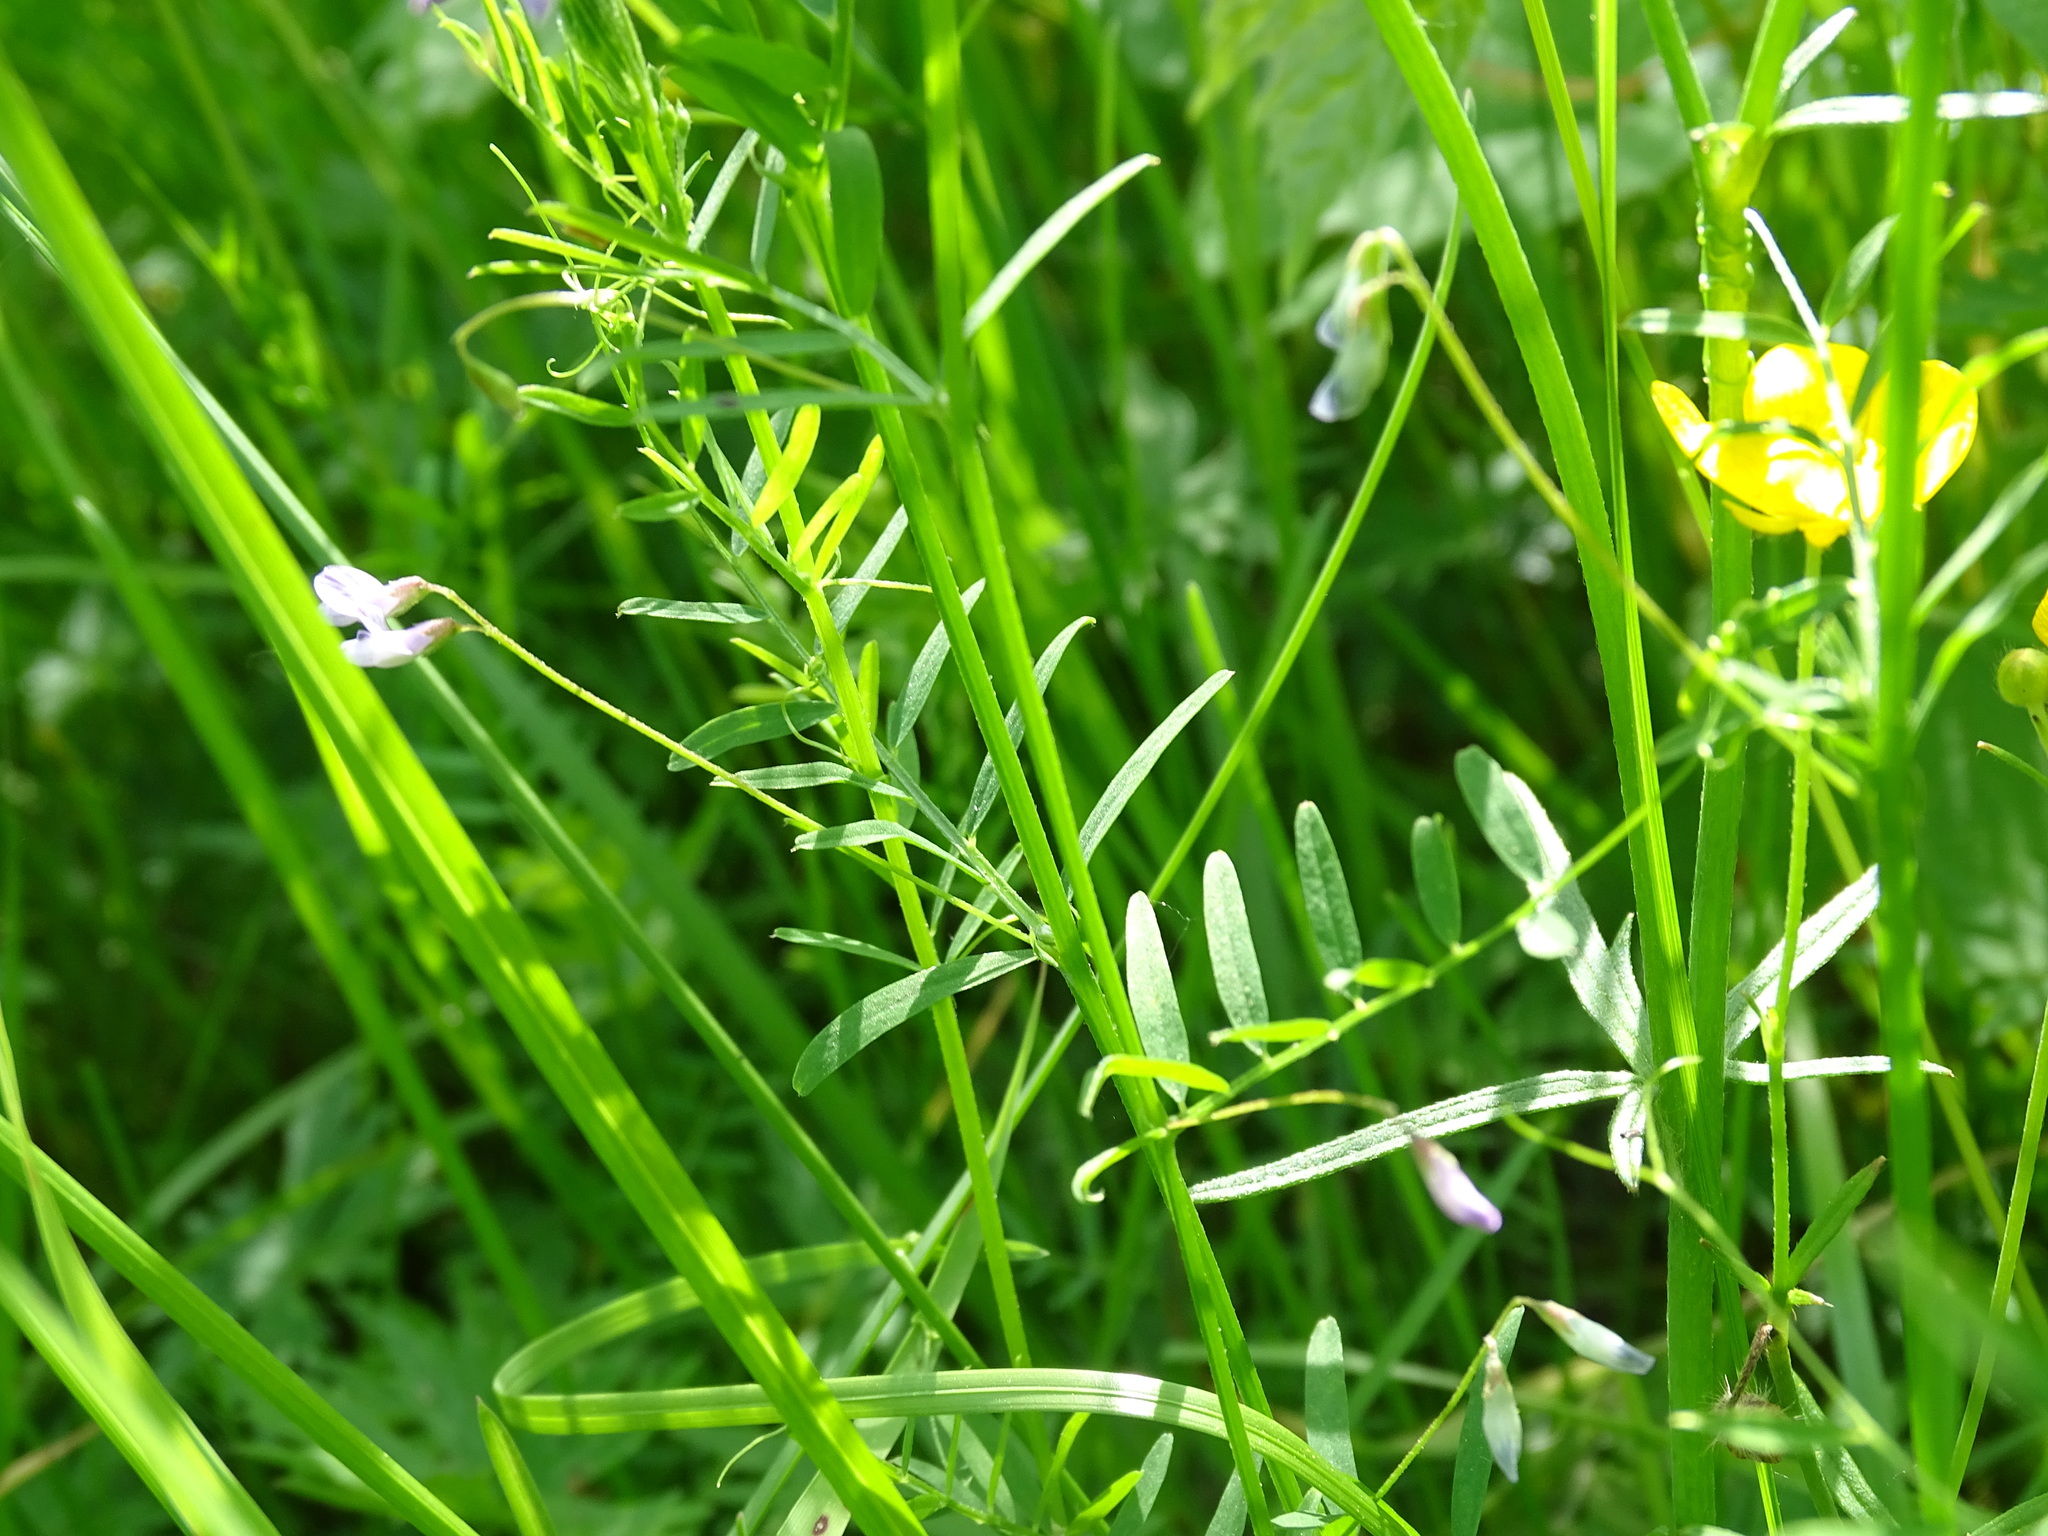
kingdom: Plantae
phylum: Tracheophyta
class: Magnoliopsida
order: Fabales
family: Fabaceae
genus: Vicia
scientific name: Vicia tetrasperma
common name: Smooth tare
